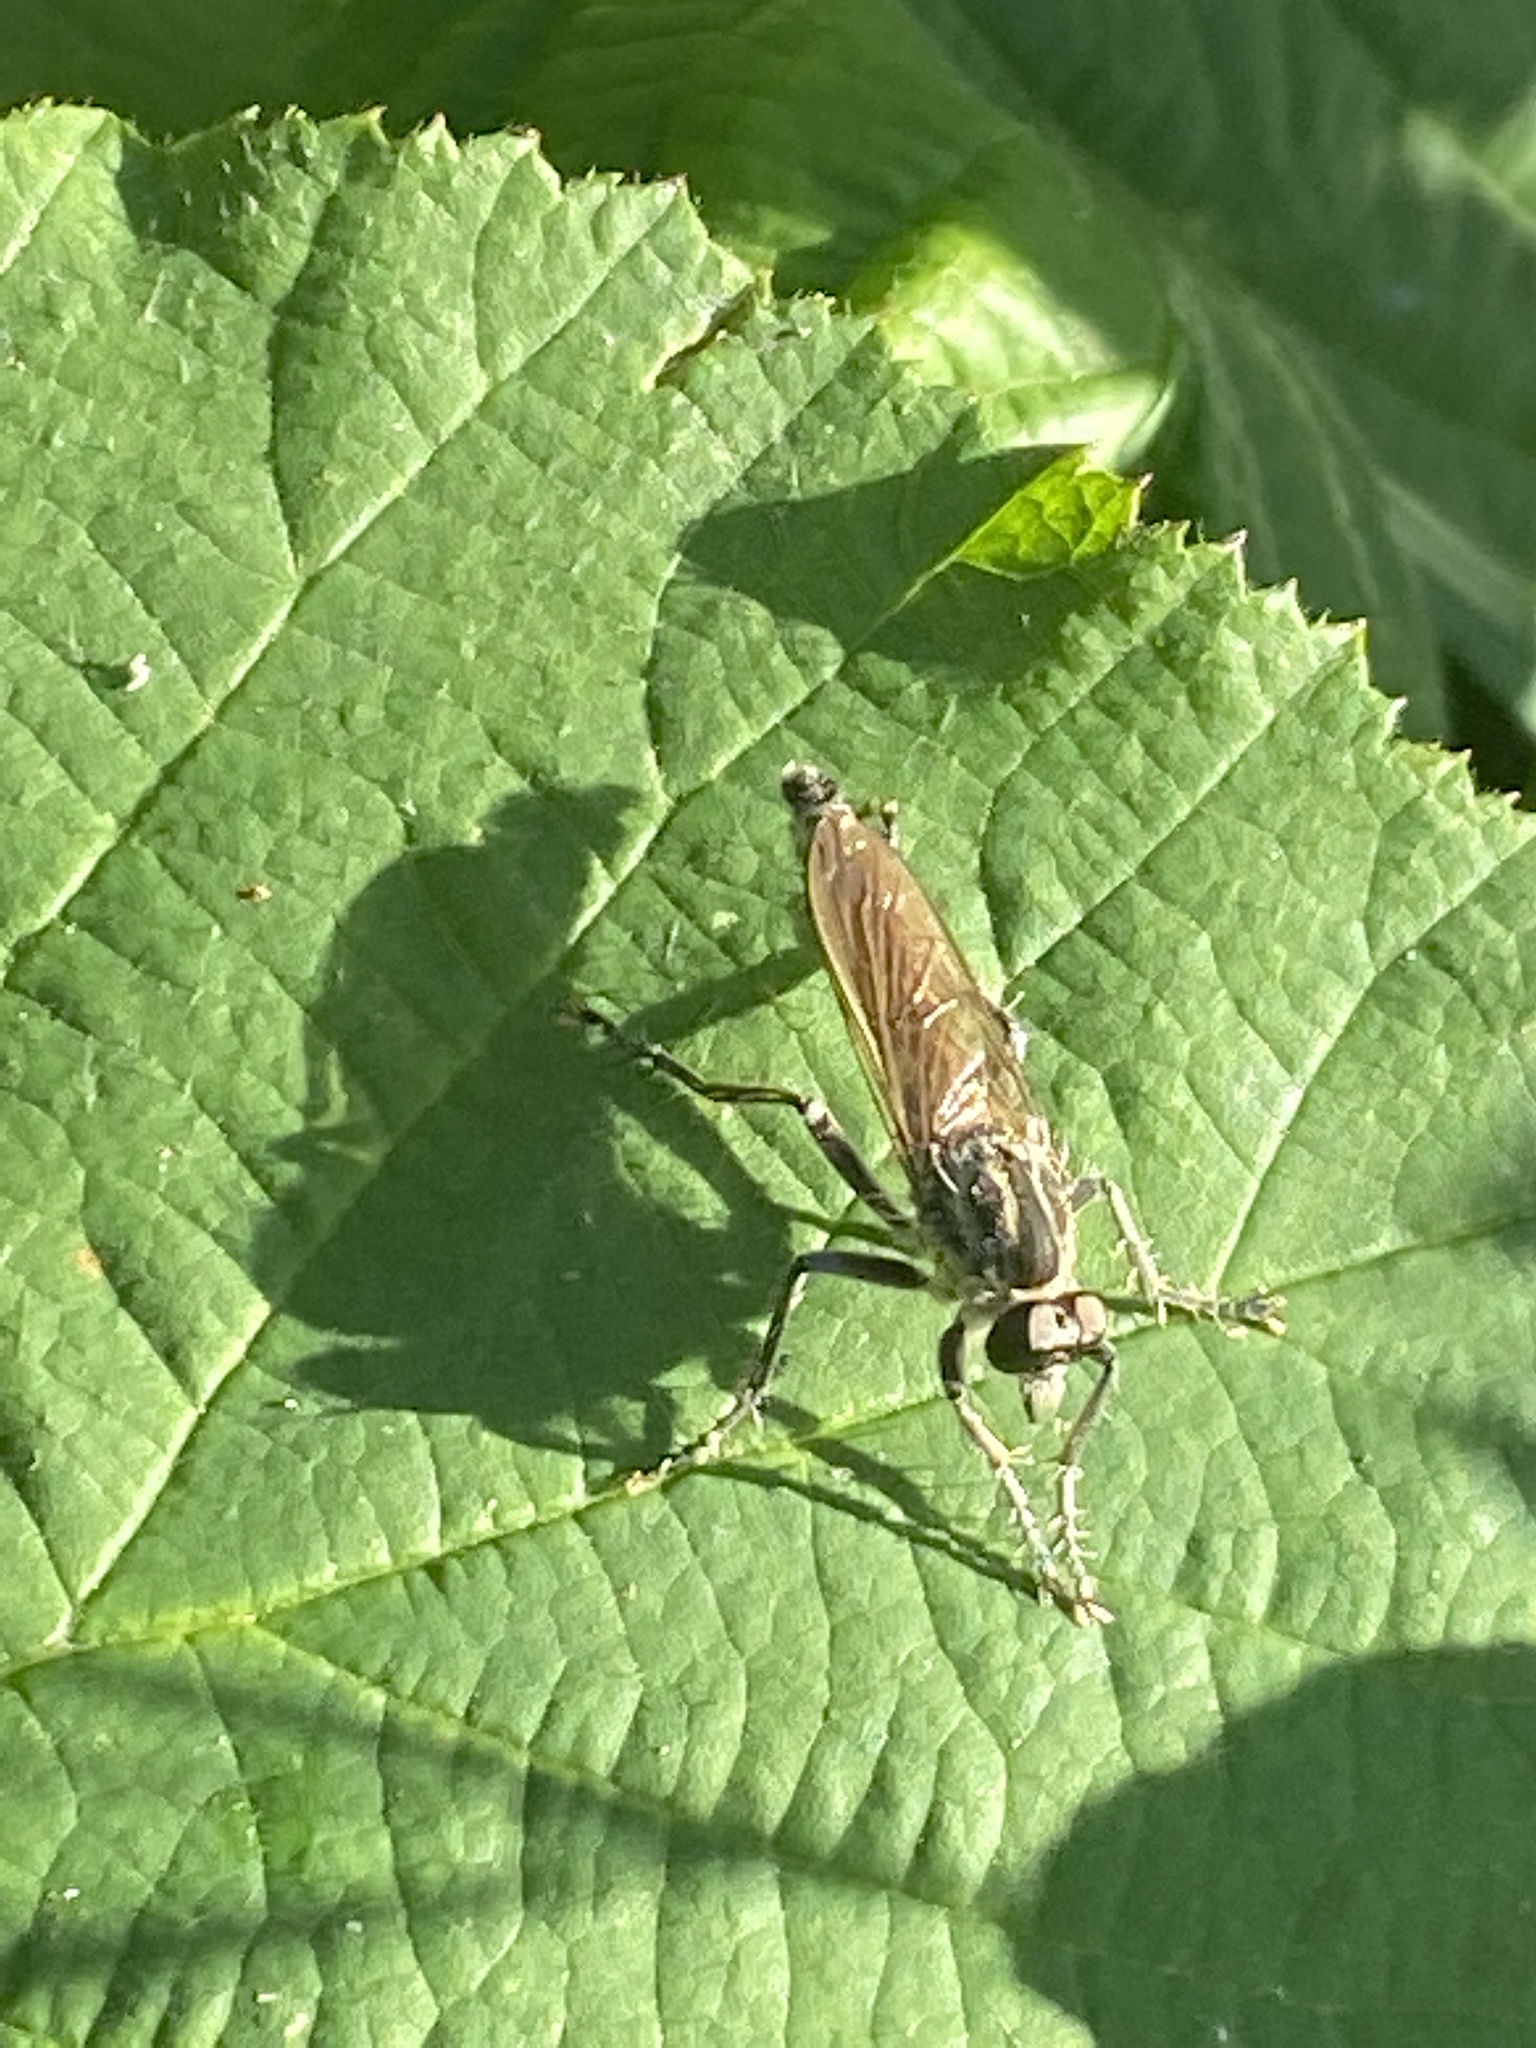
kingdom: Animalia
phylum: Arthropoda
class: Insecta
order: Diptera
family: Asilidae
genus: Philonicus
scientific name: Philonicus albiceps
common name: Dune robberfly
